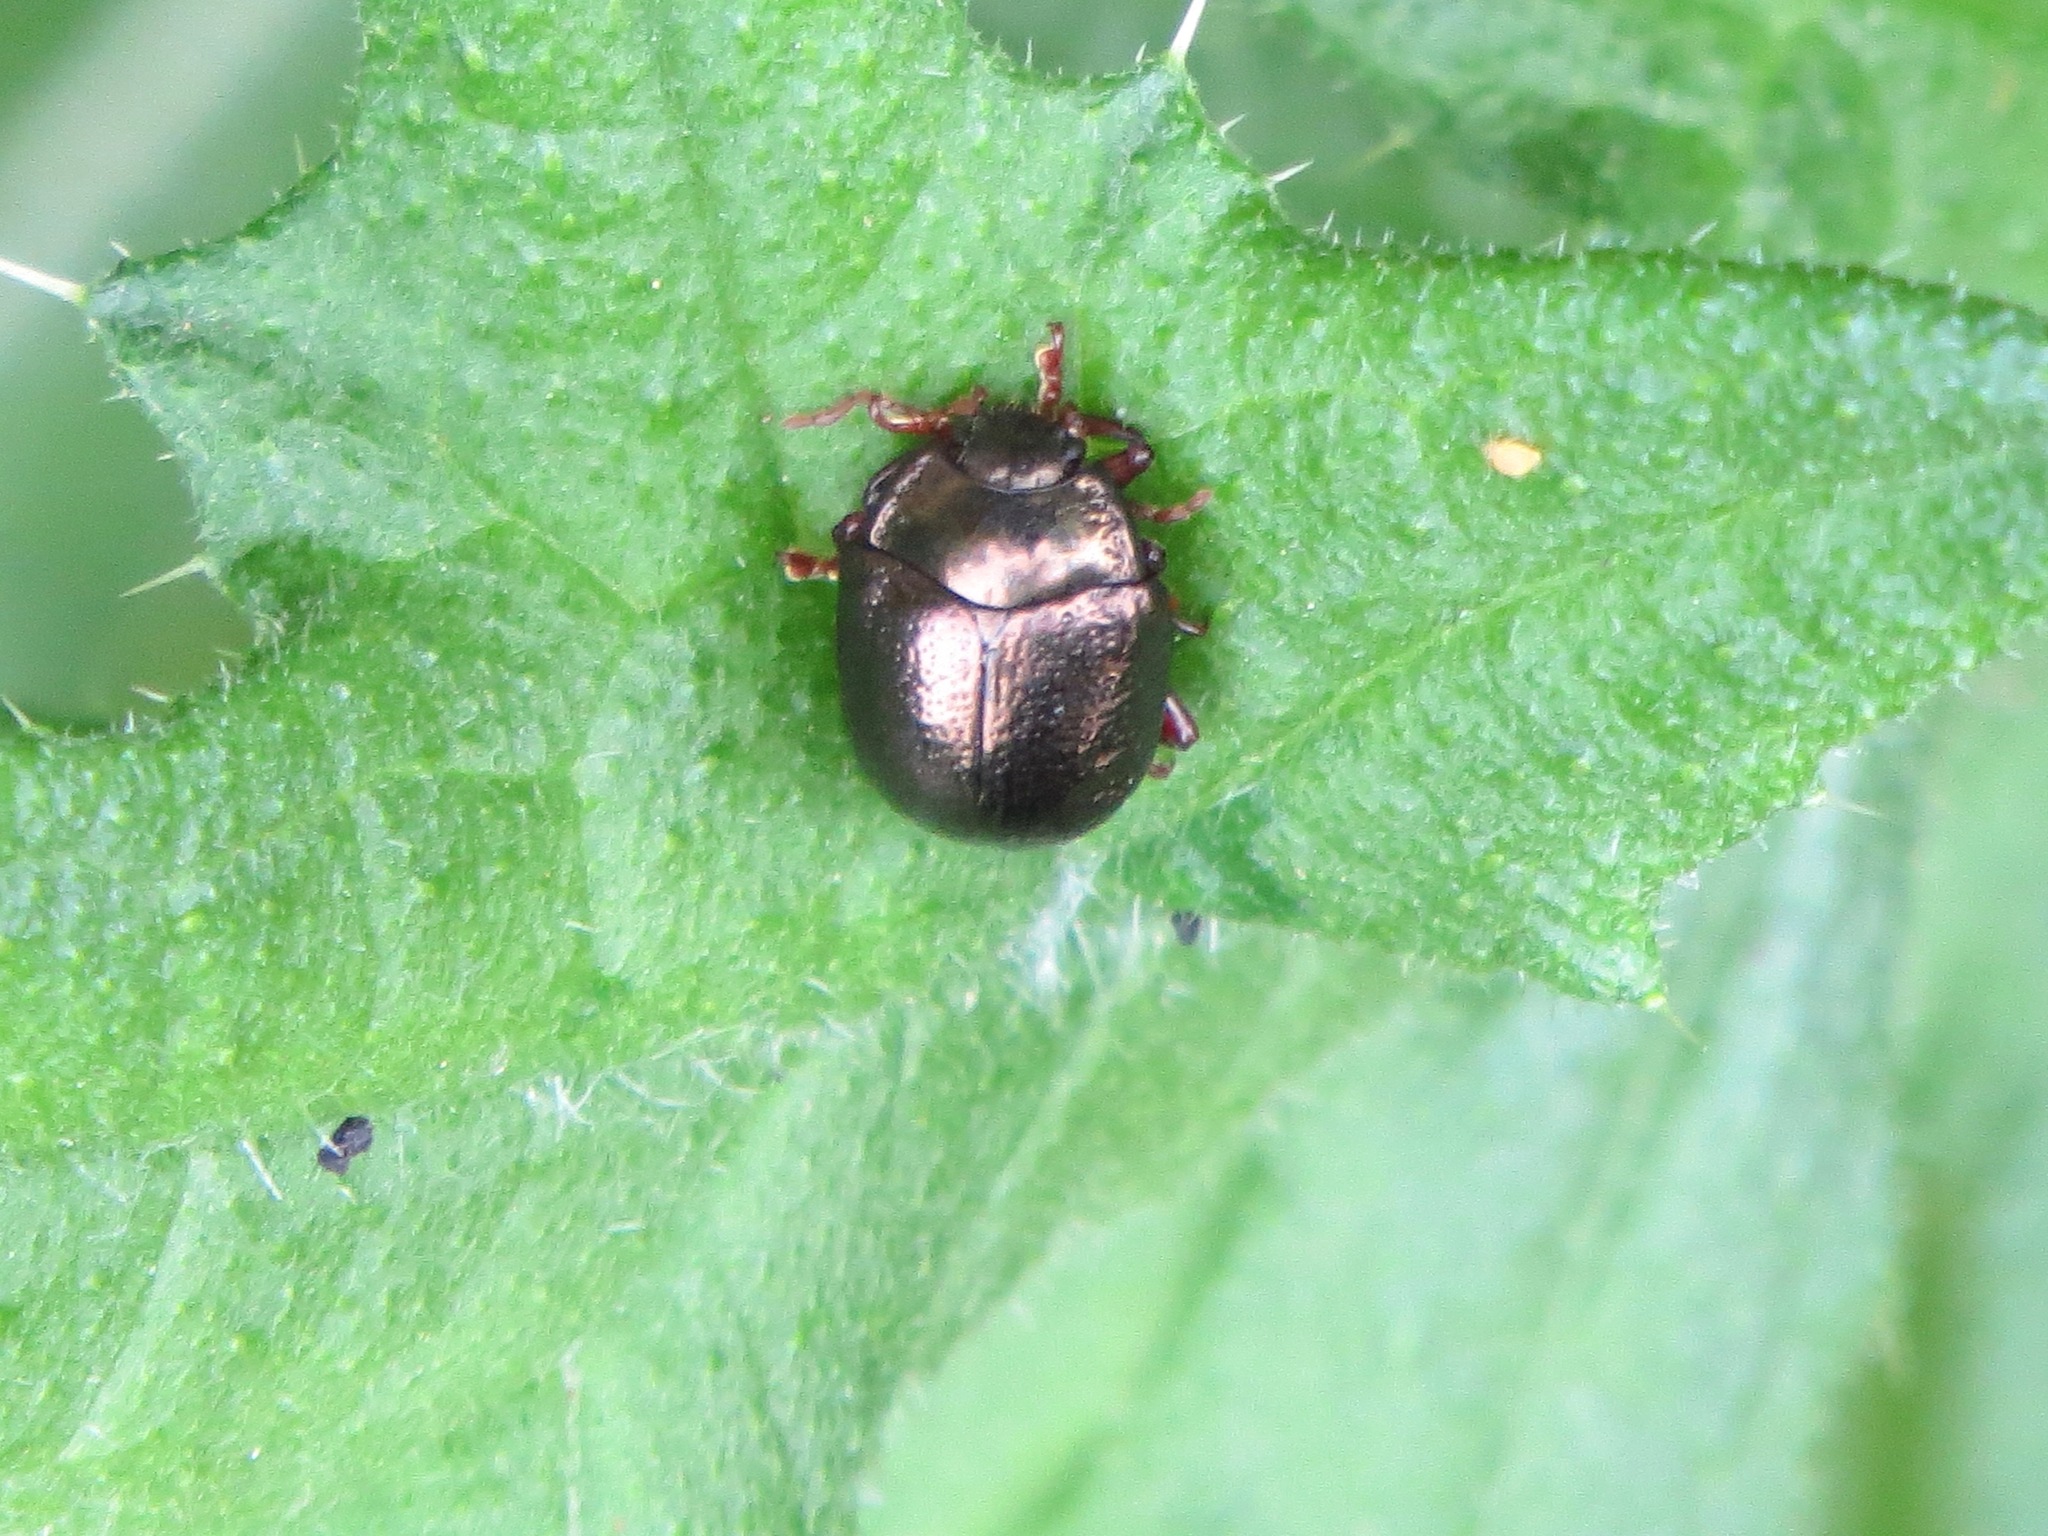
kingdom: Animalia
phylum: Arthropoda
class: Insecta
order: Coleoptera
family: Chrysomelidae
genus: Chrysolina
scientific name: Chrysolina bankii
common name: Leaf beetle
